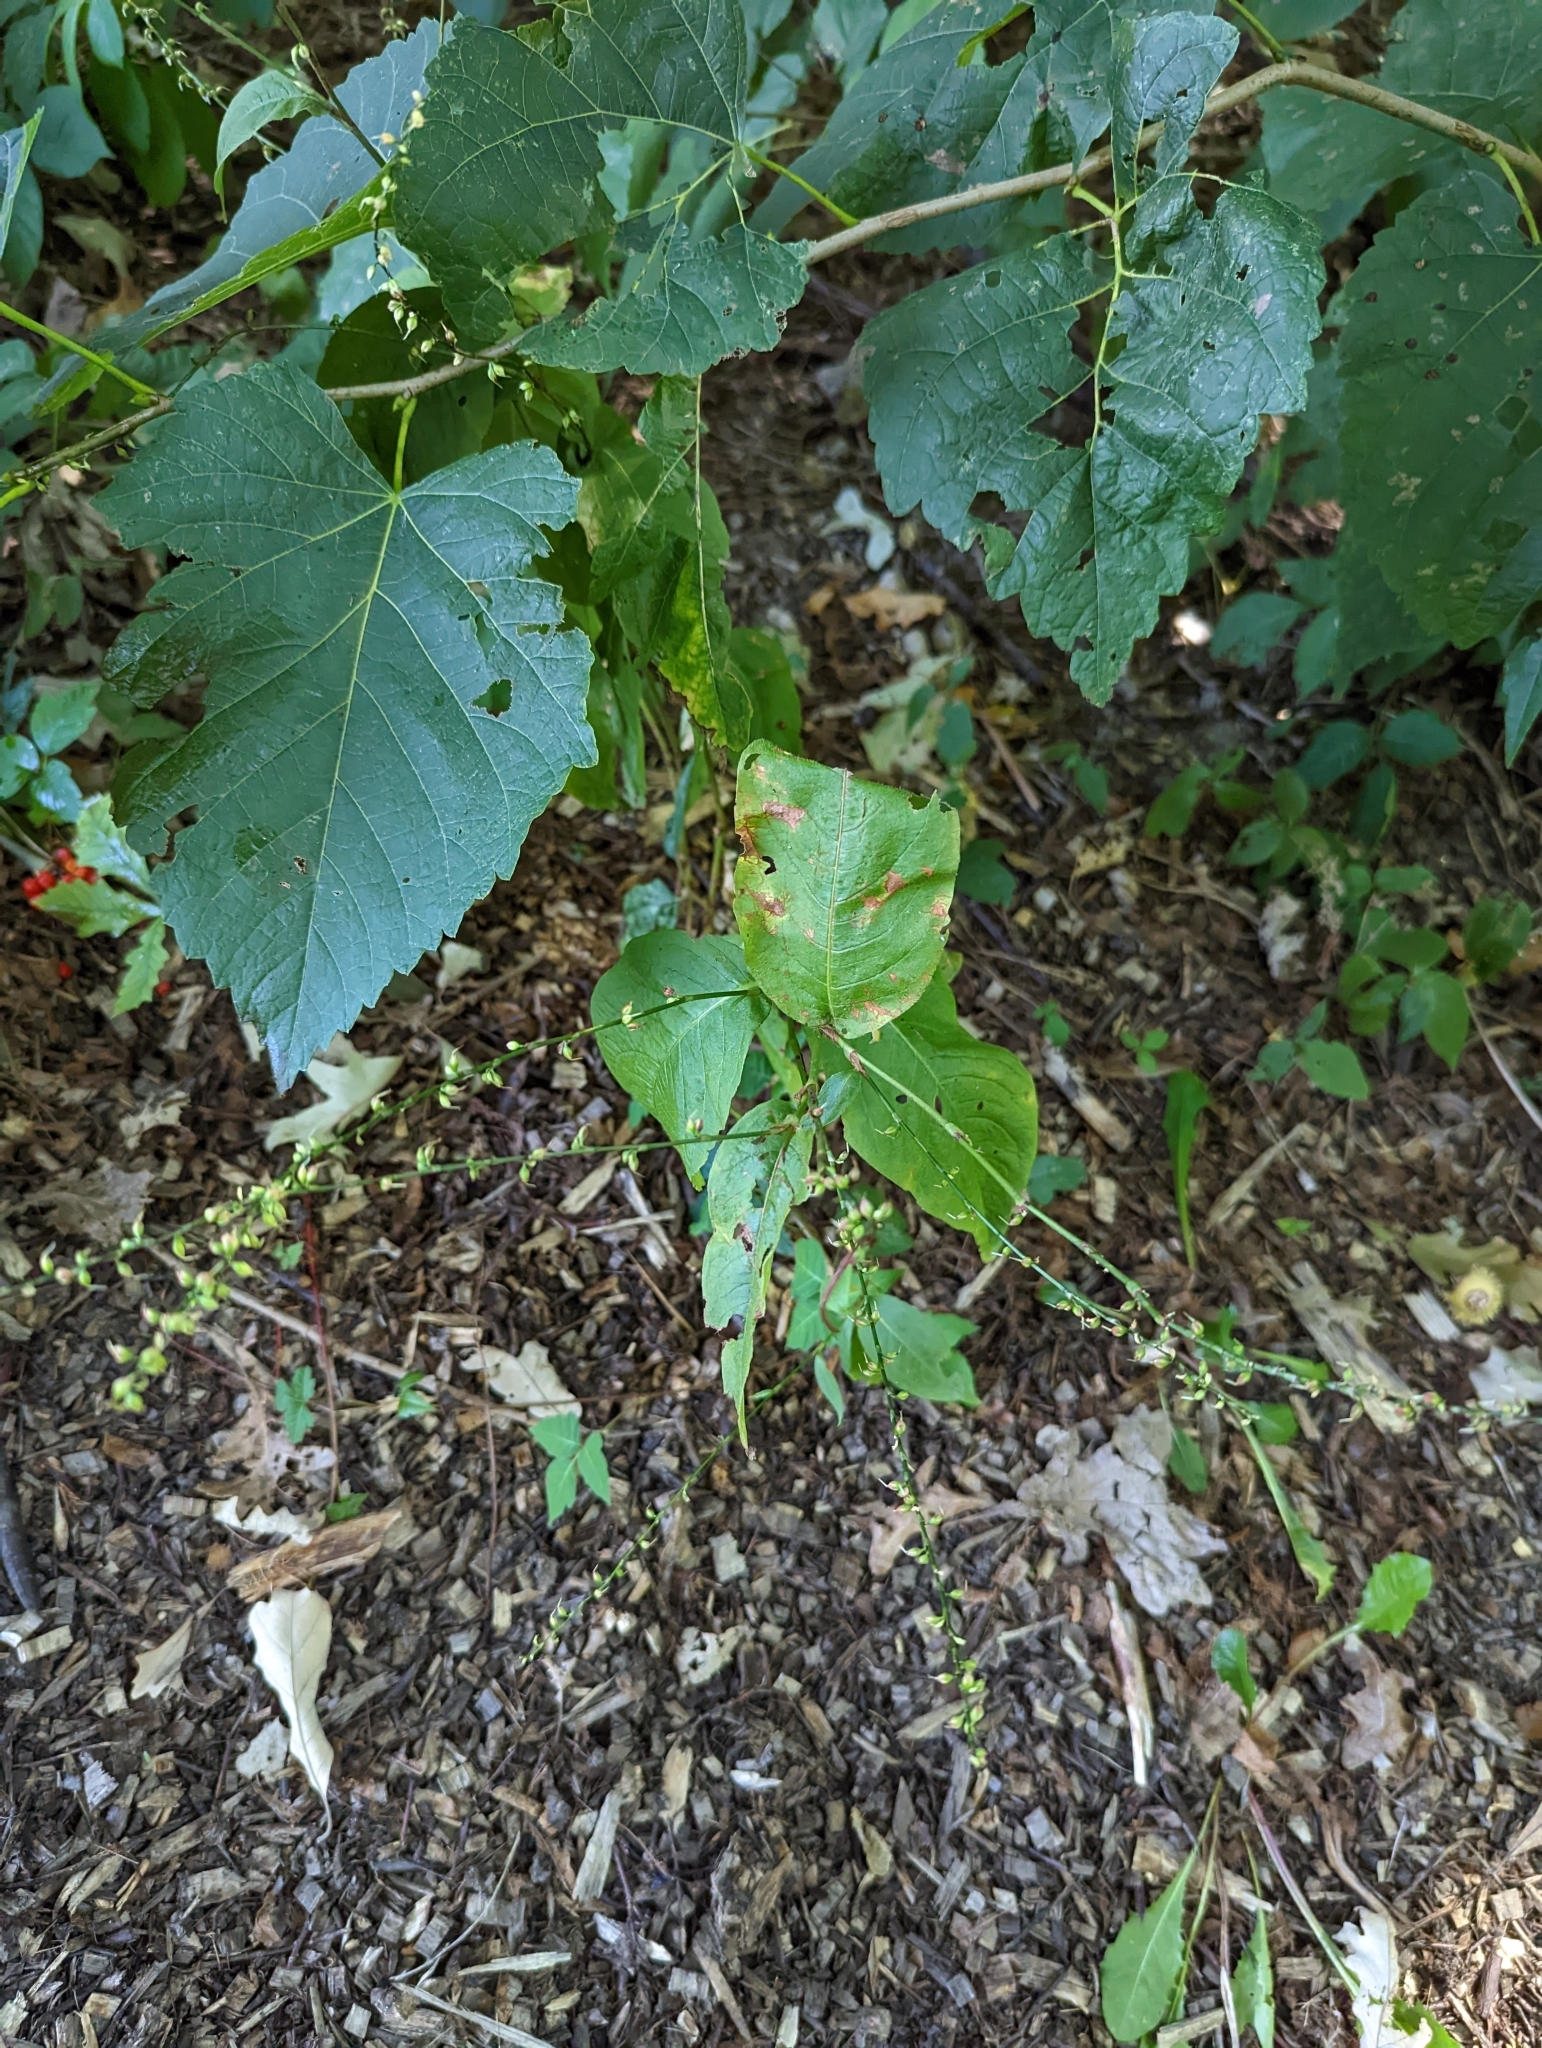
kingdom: Plantae
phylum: Tracheophyta
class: Magnoliopsida
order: Caryophyllales
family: Polygonaceae
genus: Persicaria
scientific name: Persicaria virginiana
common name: Jumpseed
